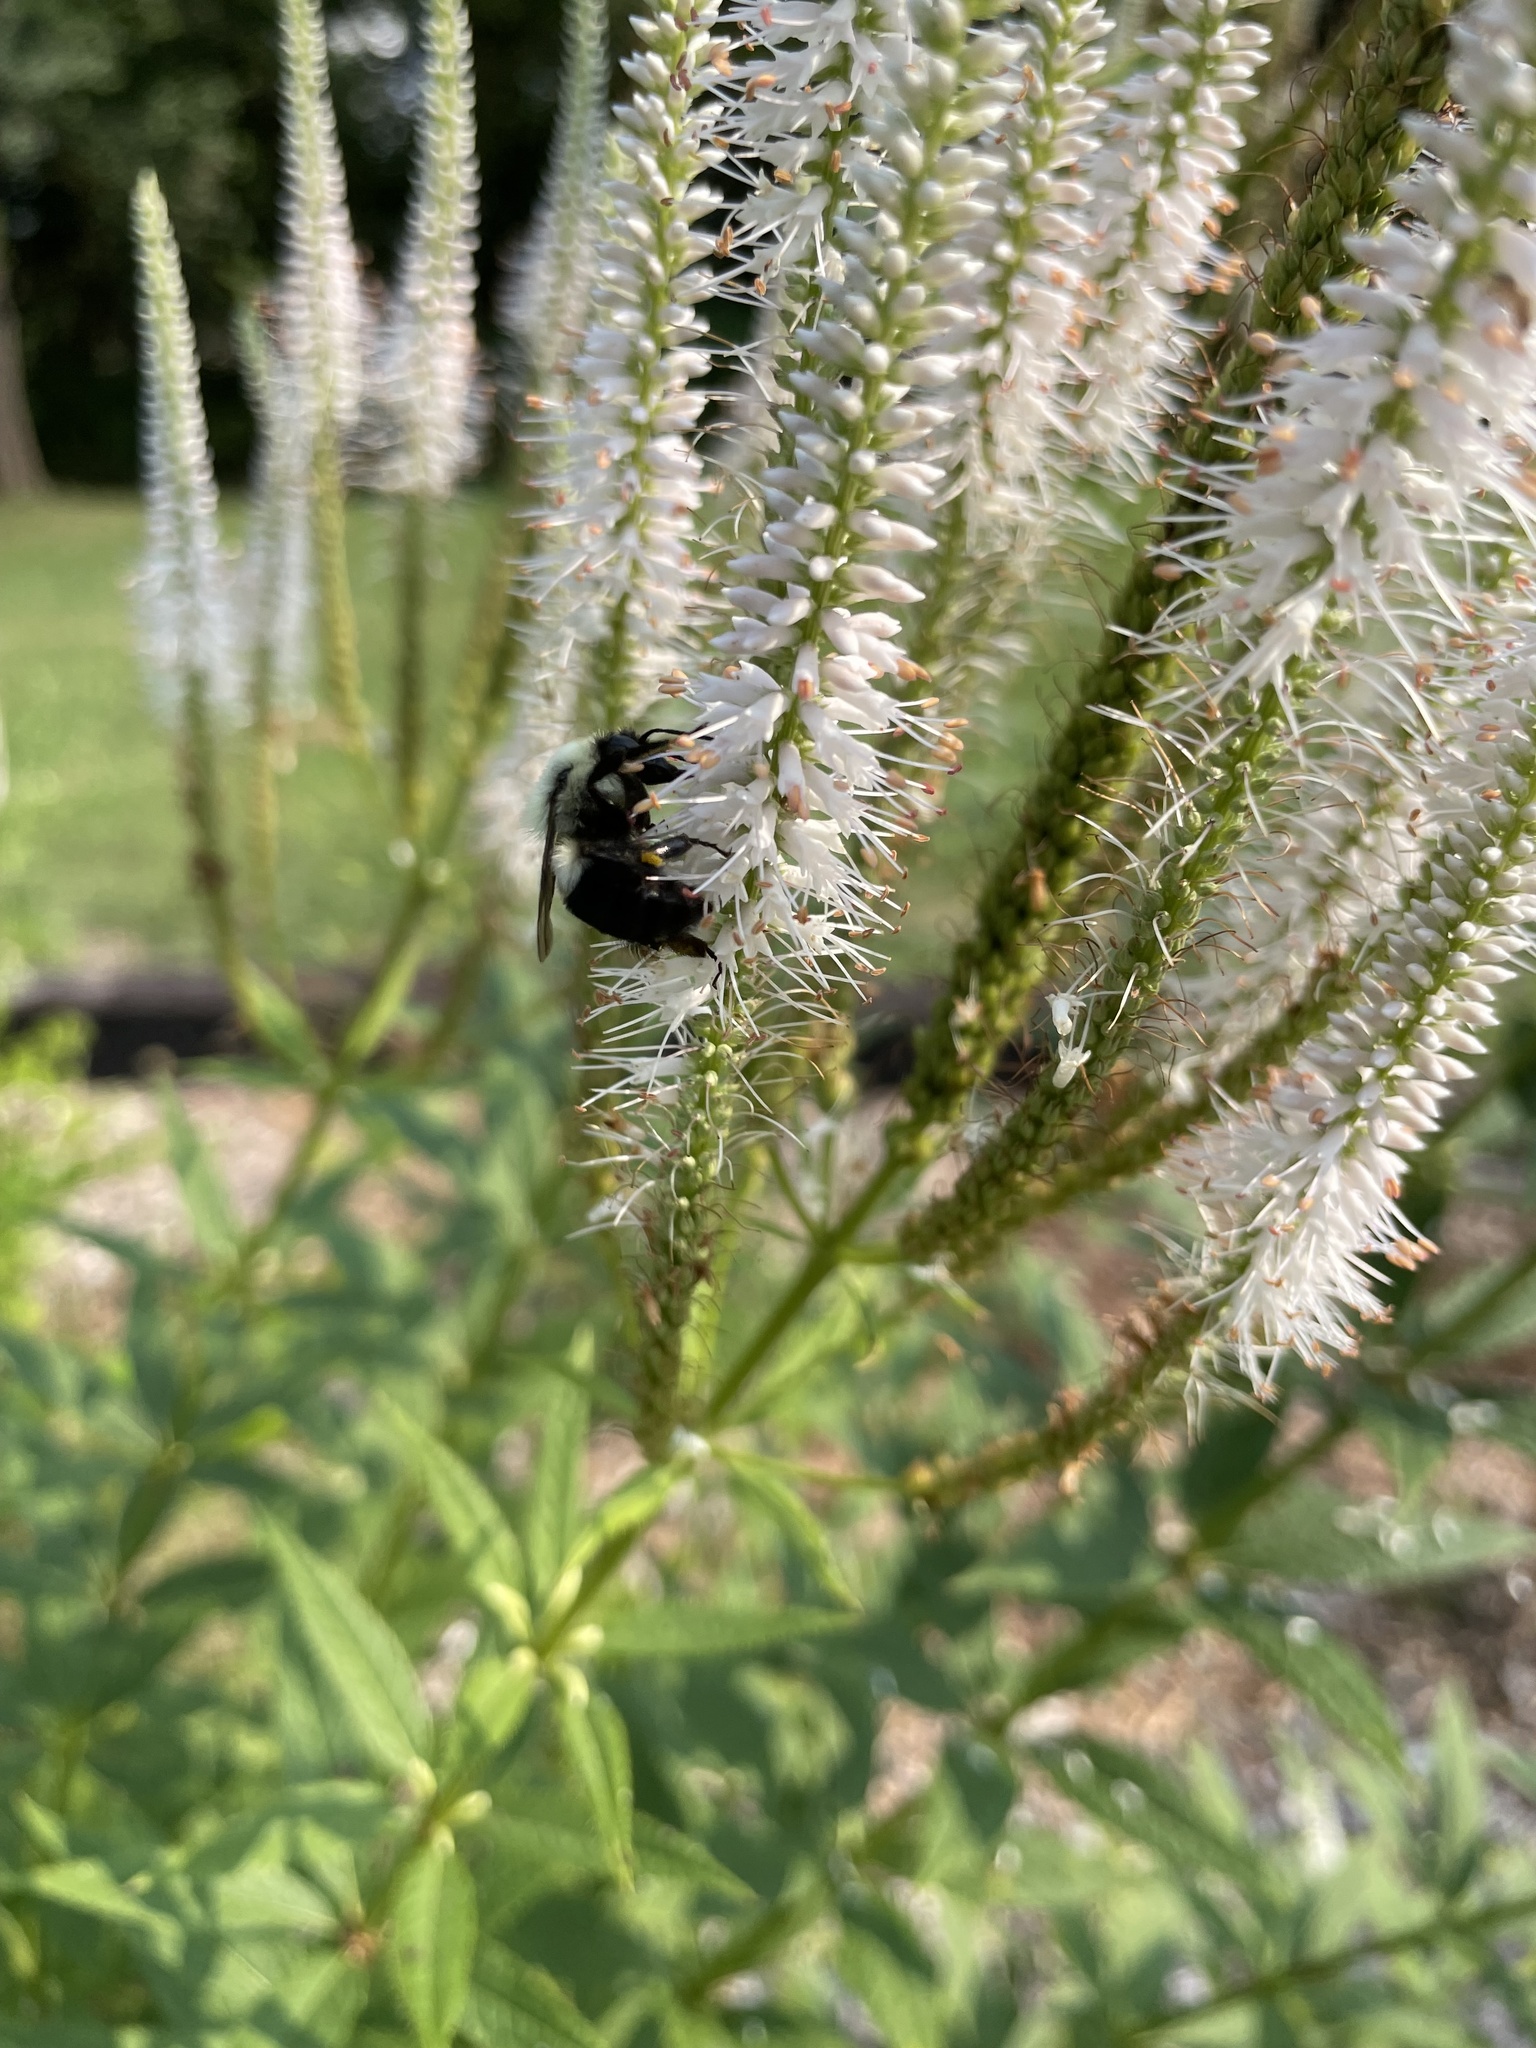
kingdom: Animalia
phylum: Arthropoda
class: Insecta
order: Hymenoptera
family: Apidae
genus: Bombus
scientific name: Bombus impatiens
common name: Common eastern bumble bee
